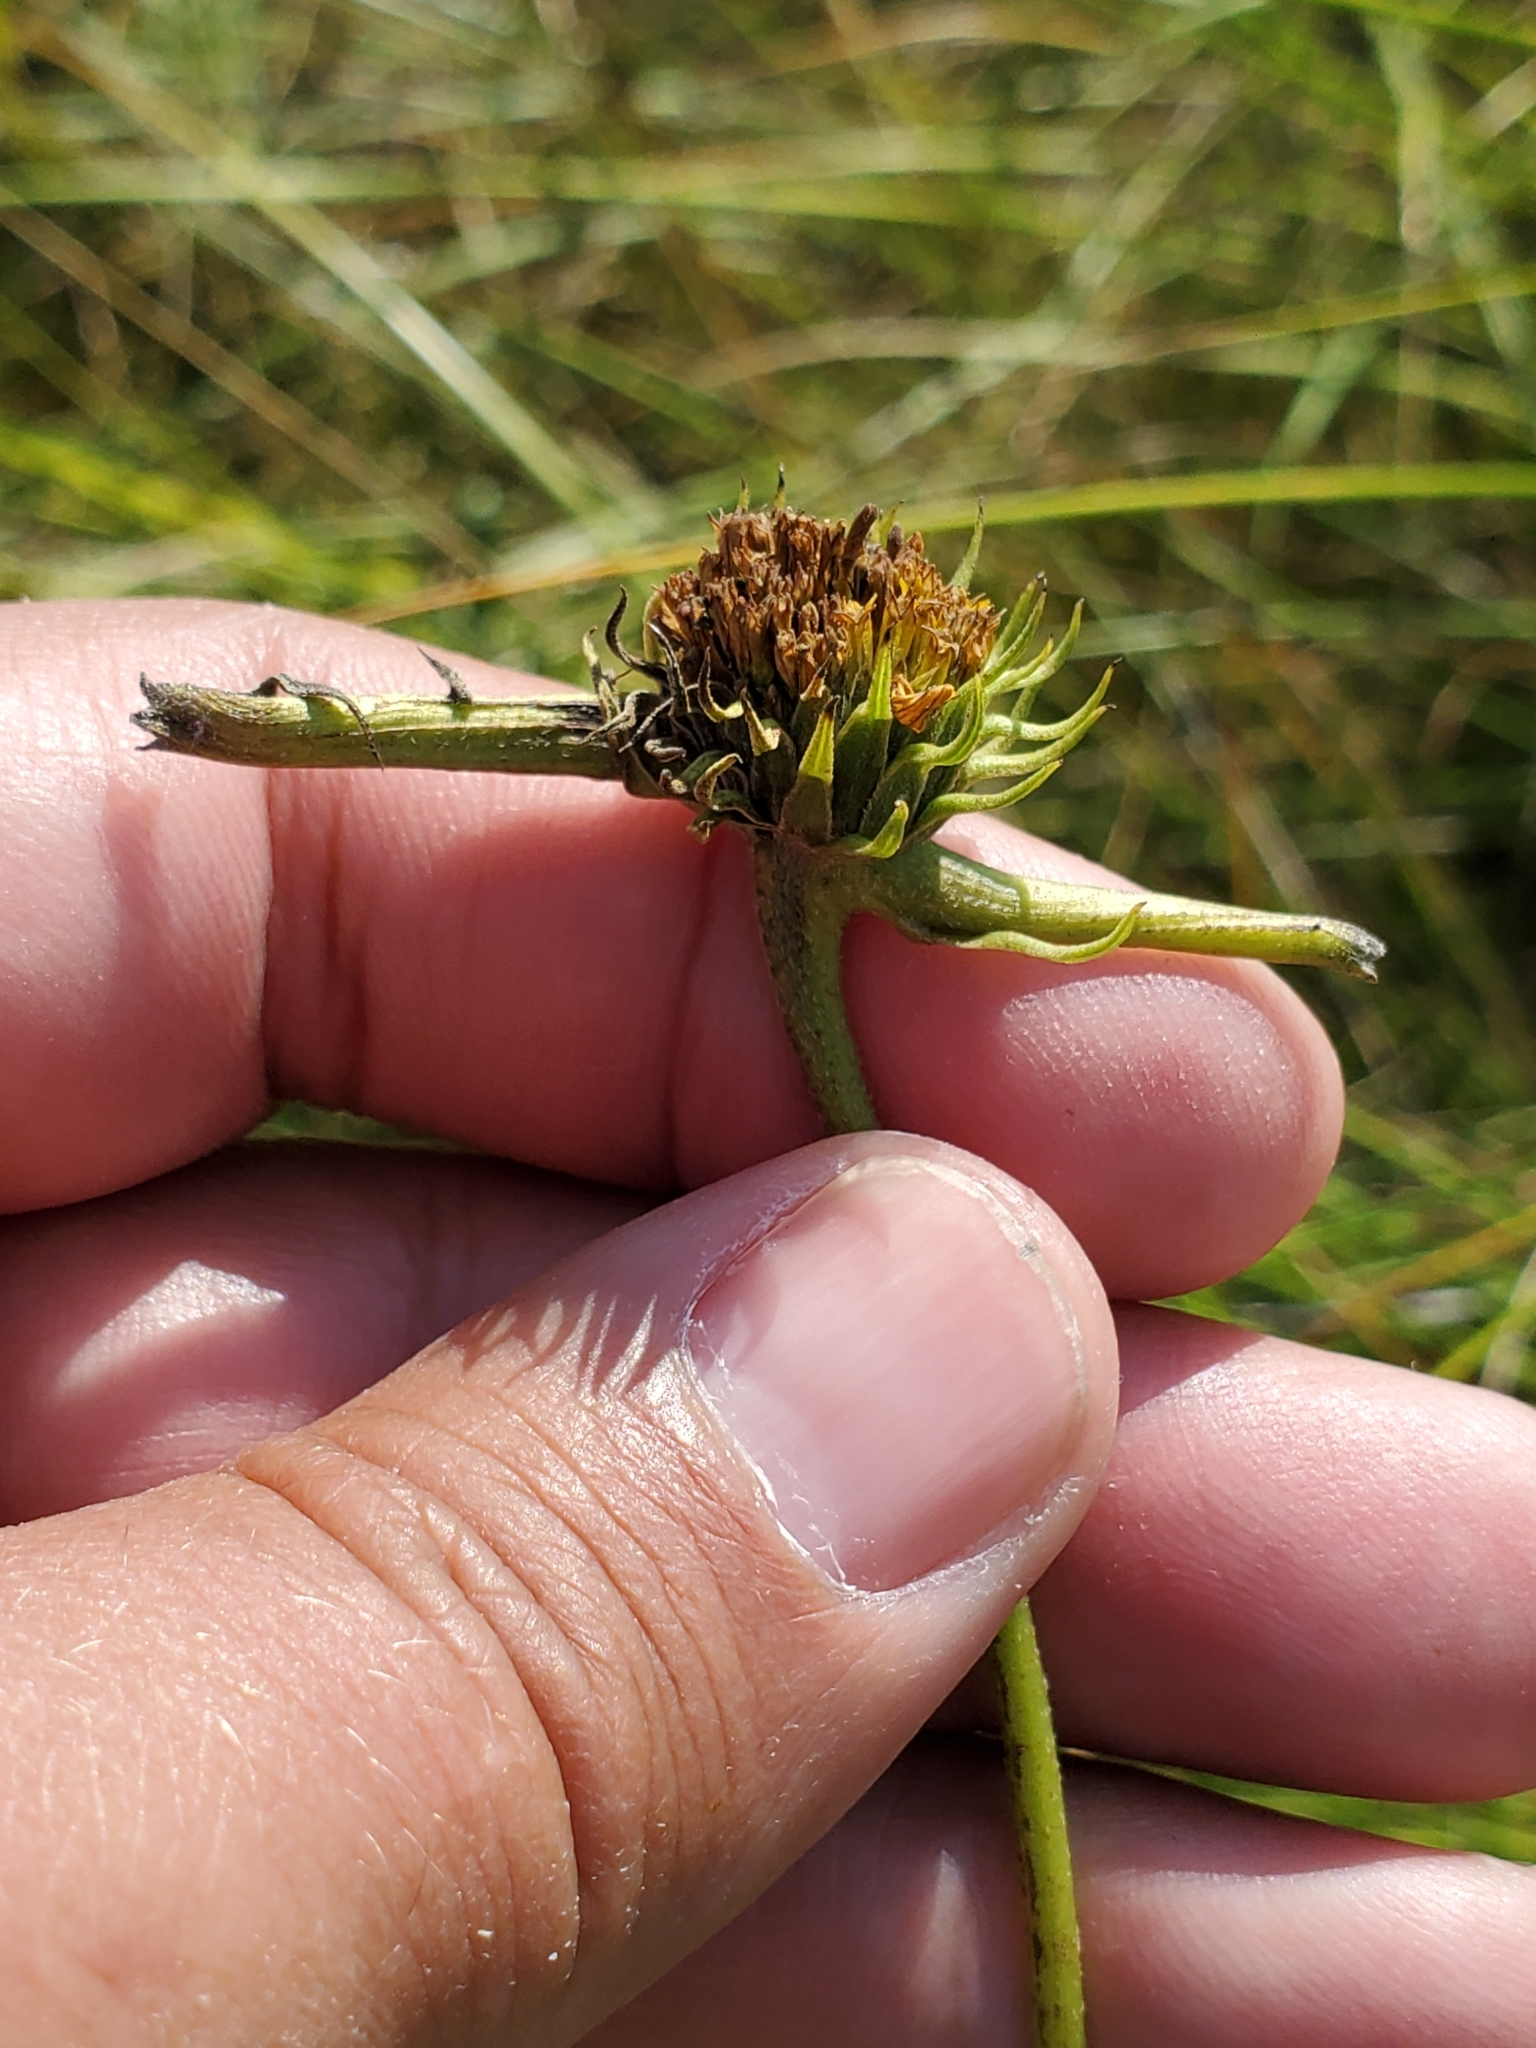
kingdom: Animalia
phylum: Arthropoda
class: Insecta
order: Diptera
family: Cecidomyiidae
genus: Olpodiplosis
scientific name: Olpodiplosis helianthi
